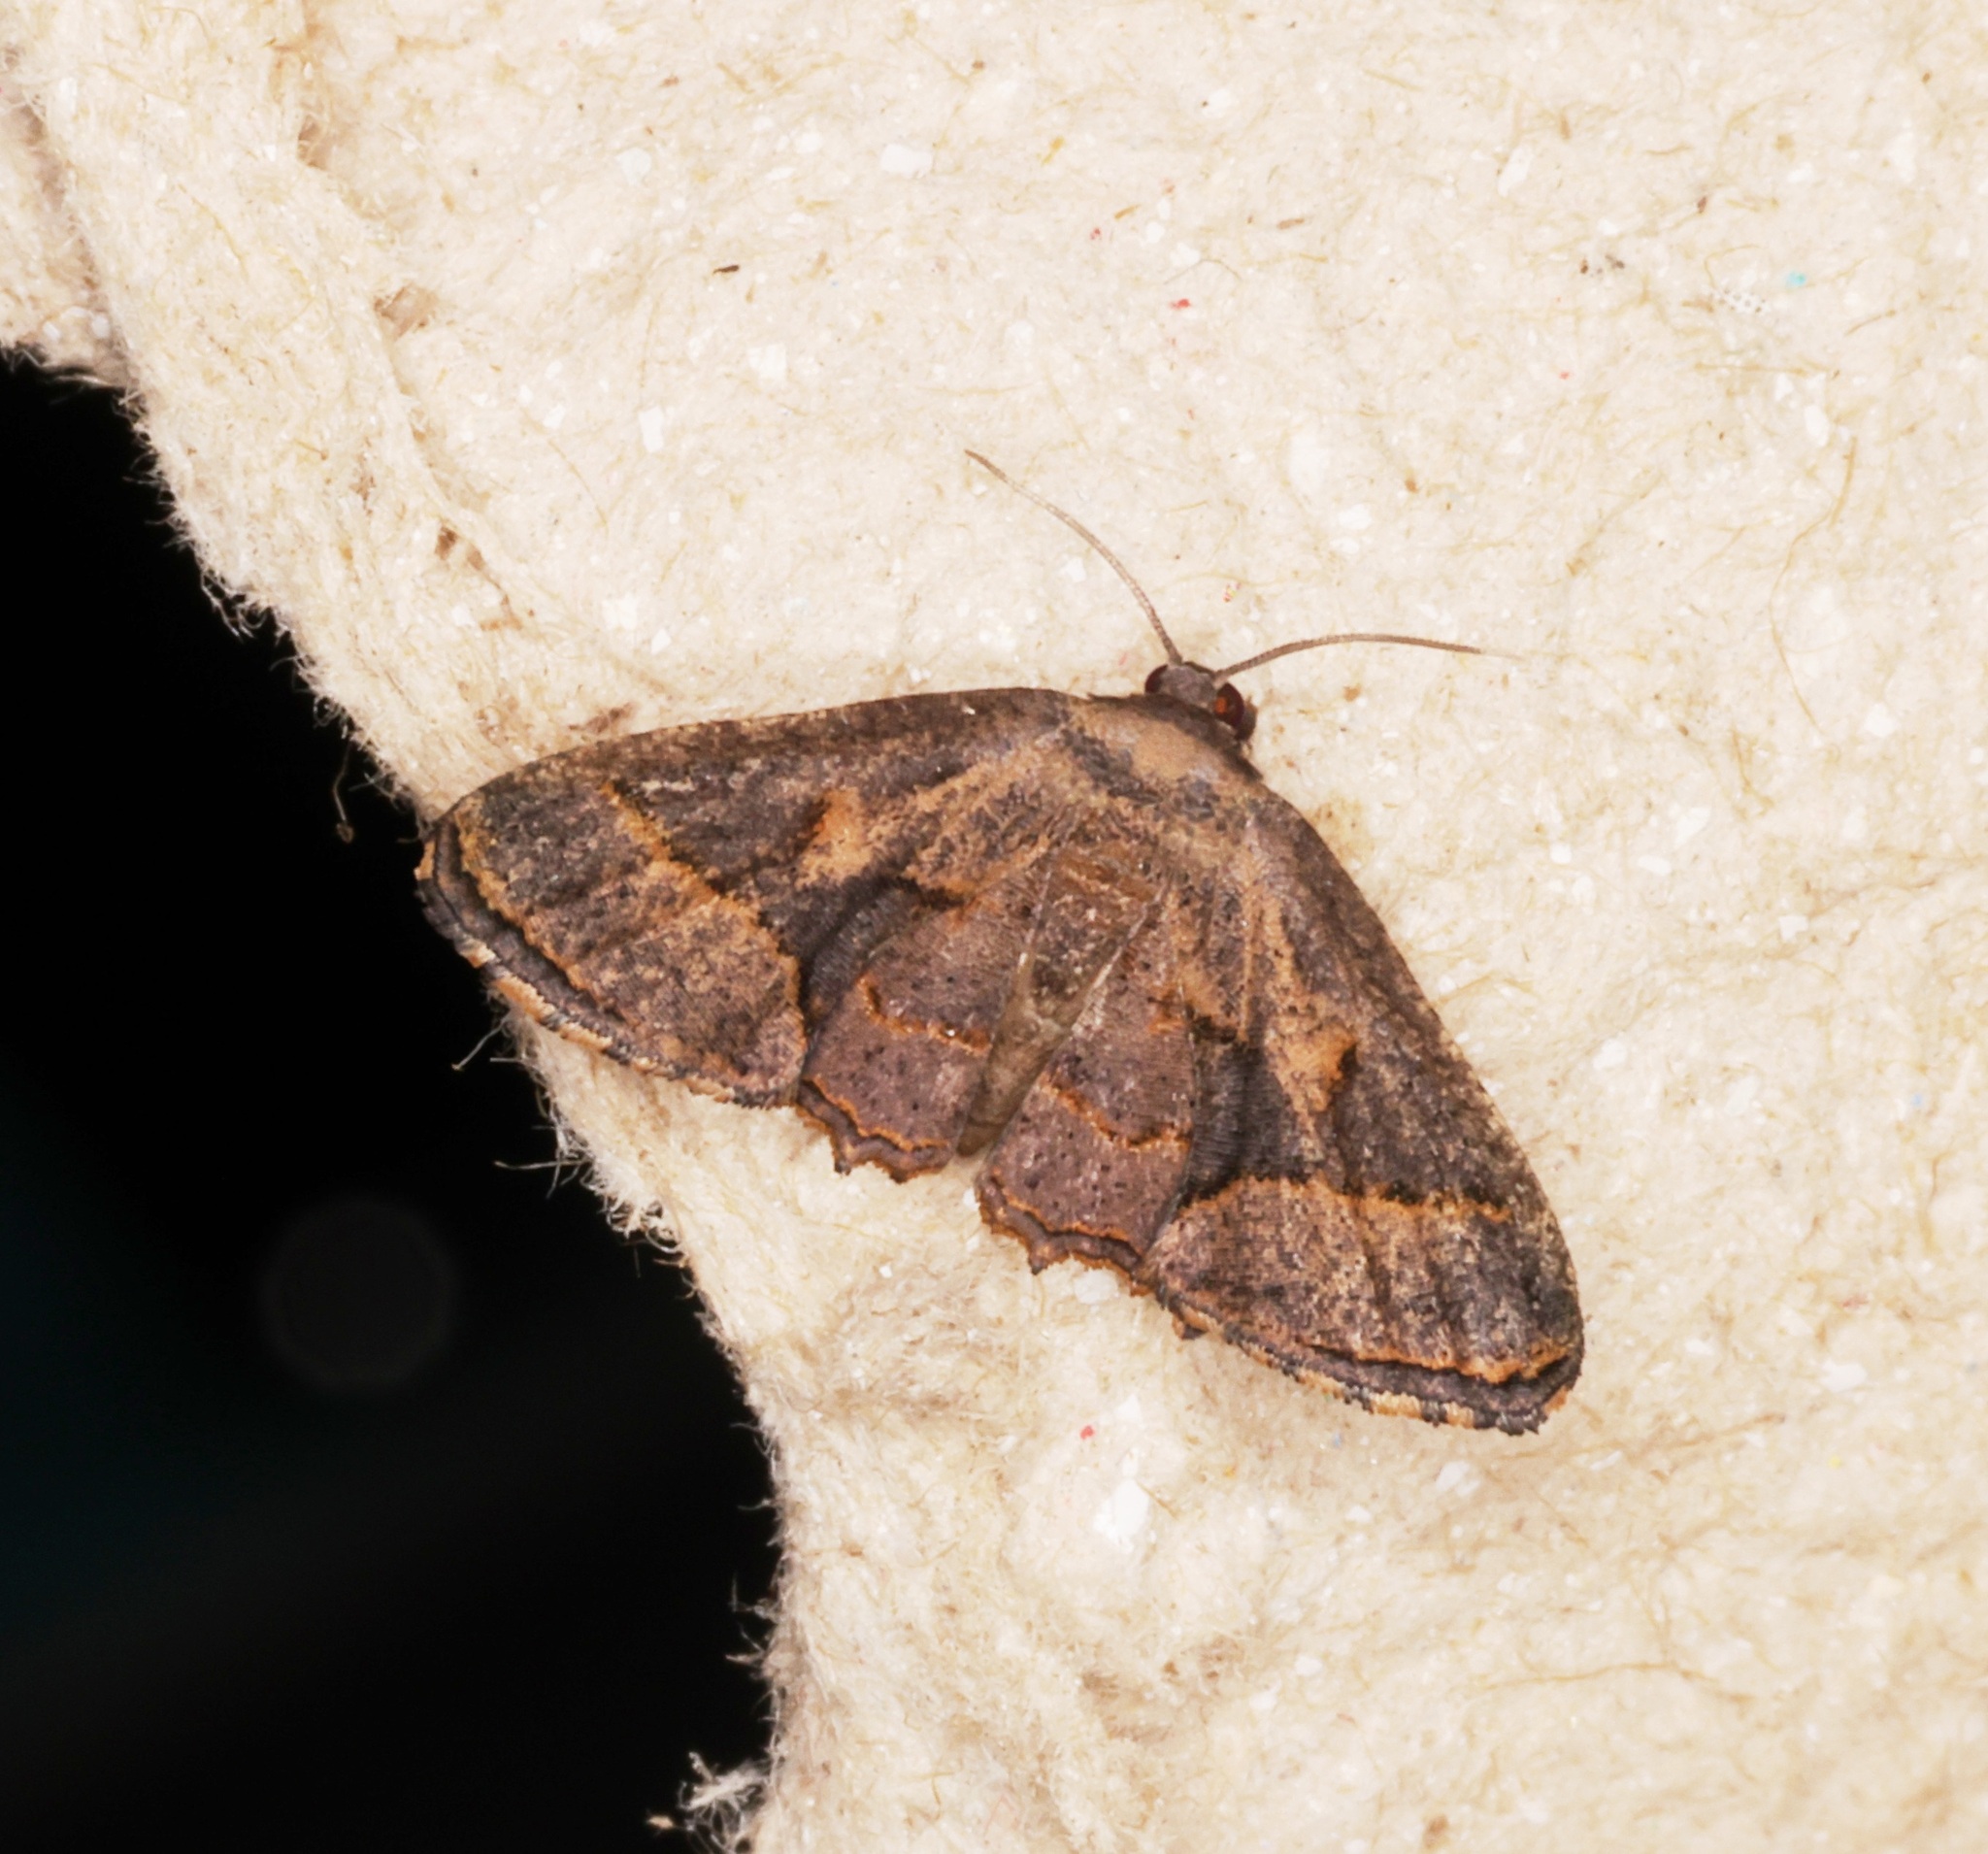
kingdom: Animalia
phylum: Arthropoda
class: Insecta
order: Lepidoptera
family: Uraniidae
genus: Monobolodes
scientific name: Monobolodes prunaria
